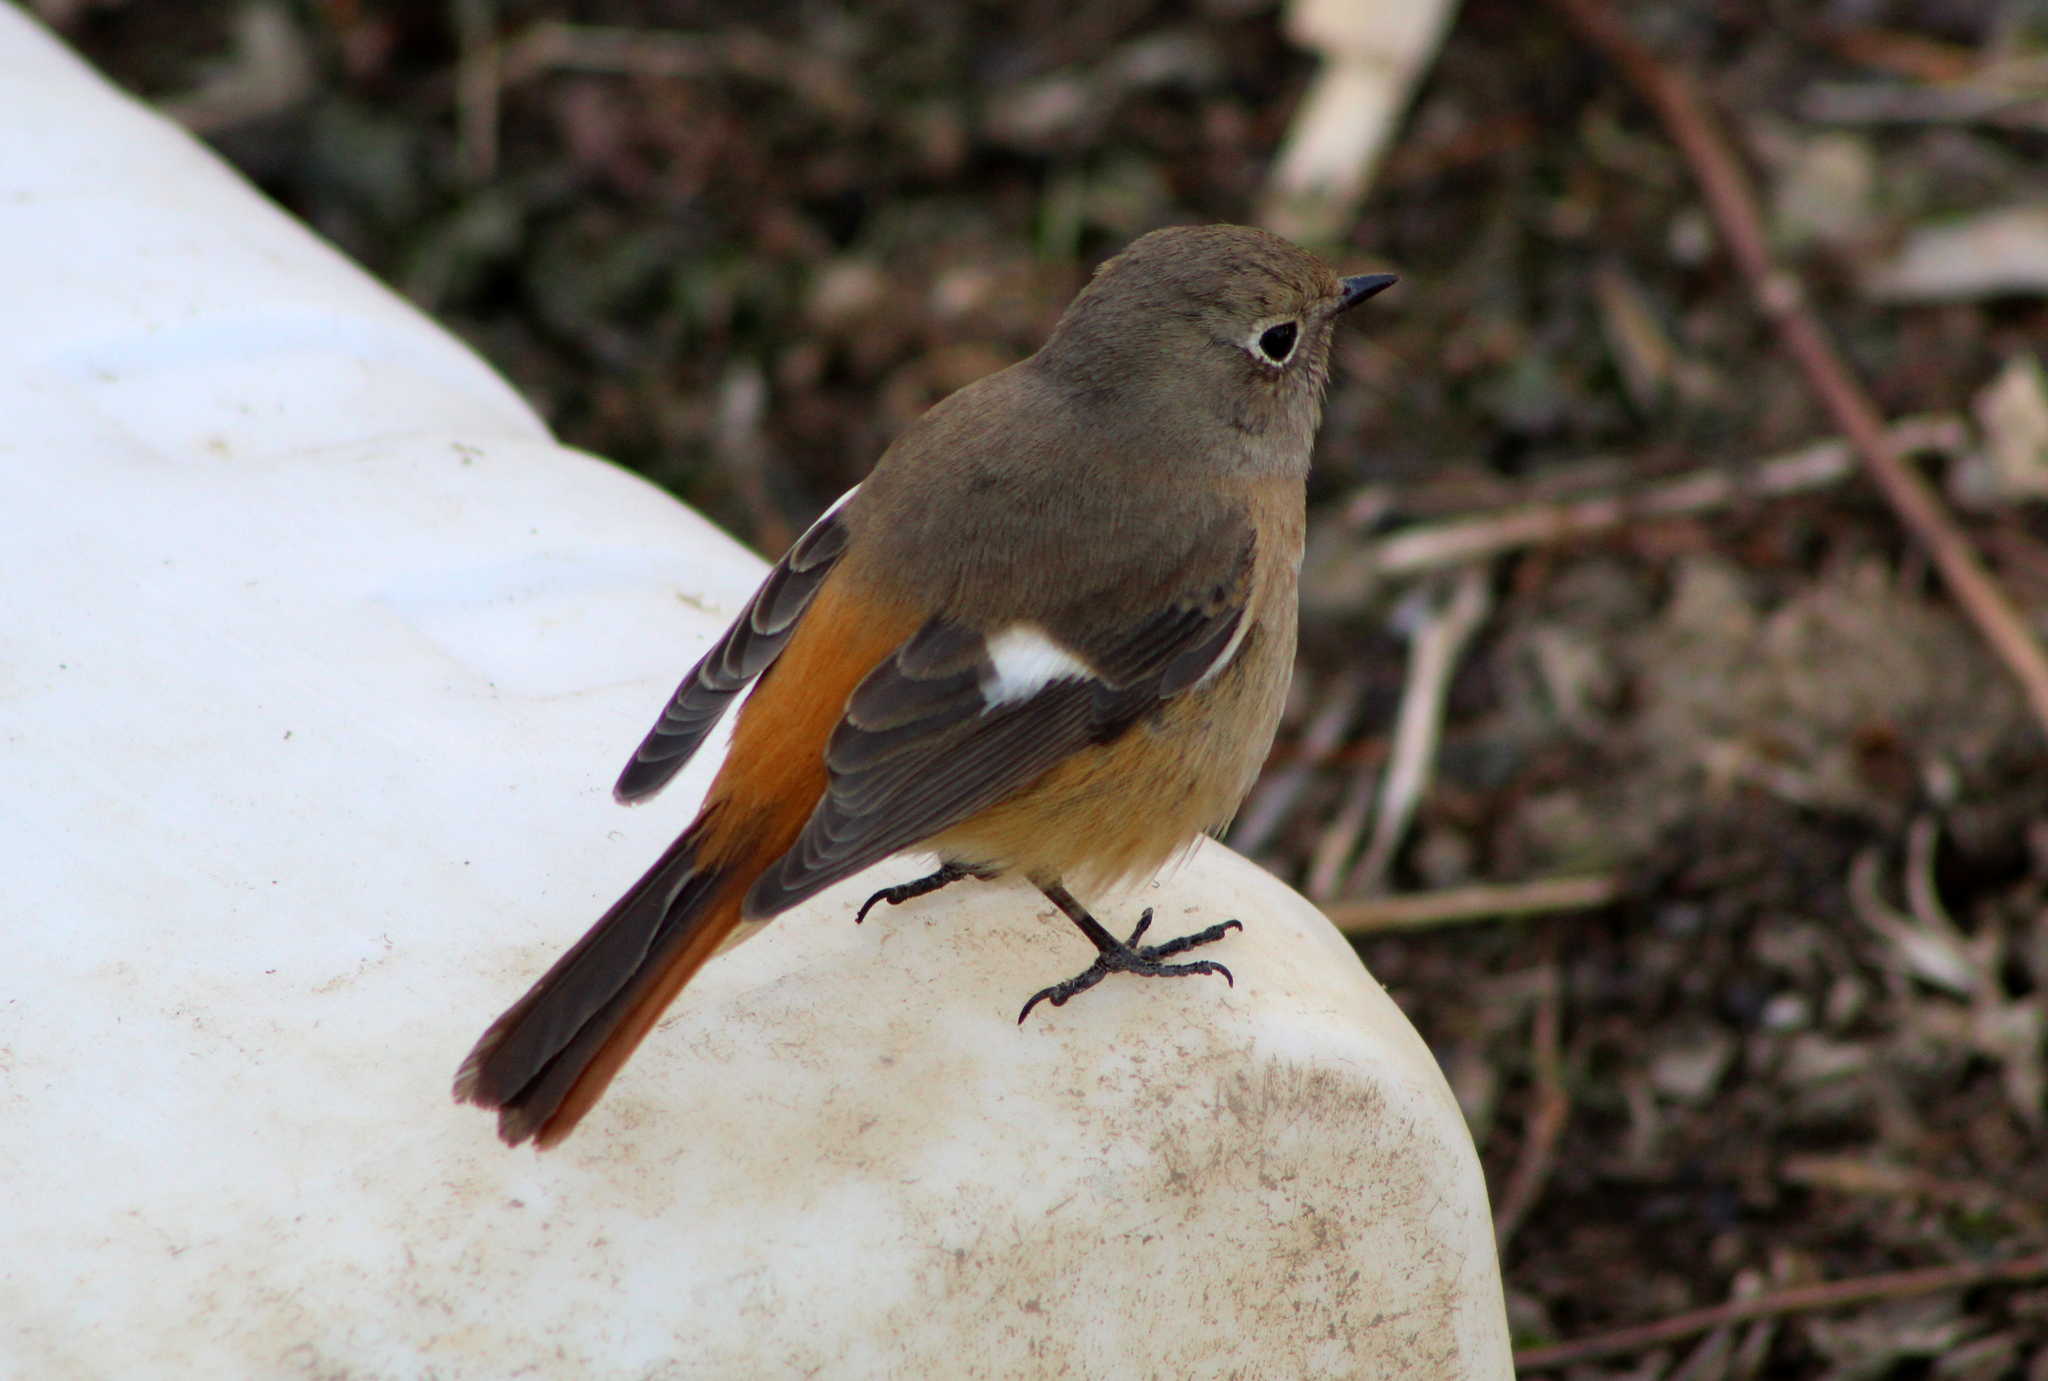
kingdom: Animalia
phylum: Chordata
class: Aves
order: Passeriformes
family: Muscicapidae
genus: Phoenicurus
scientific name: Phoenicurus auroreus
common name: Daurian redstart
